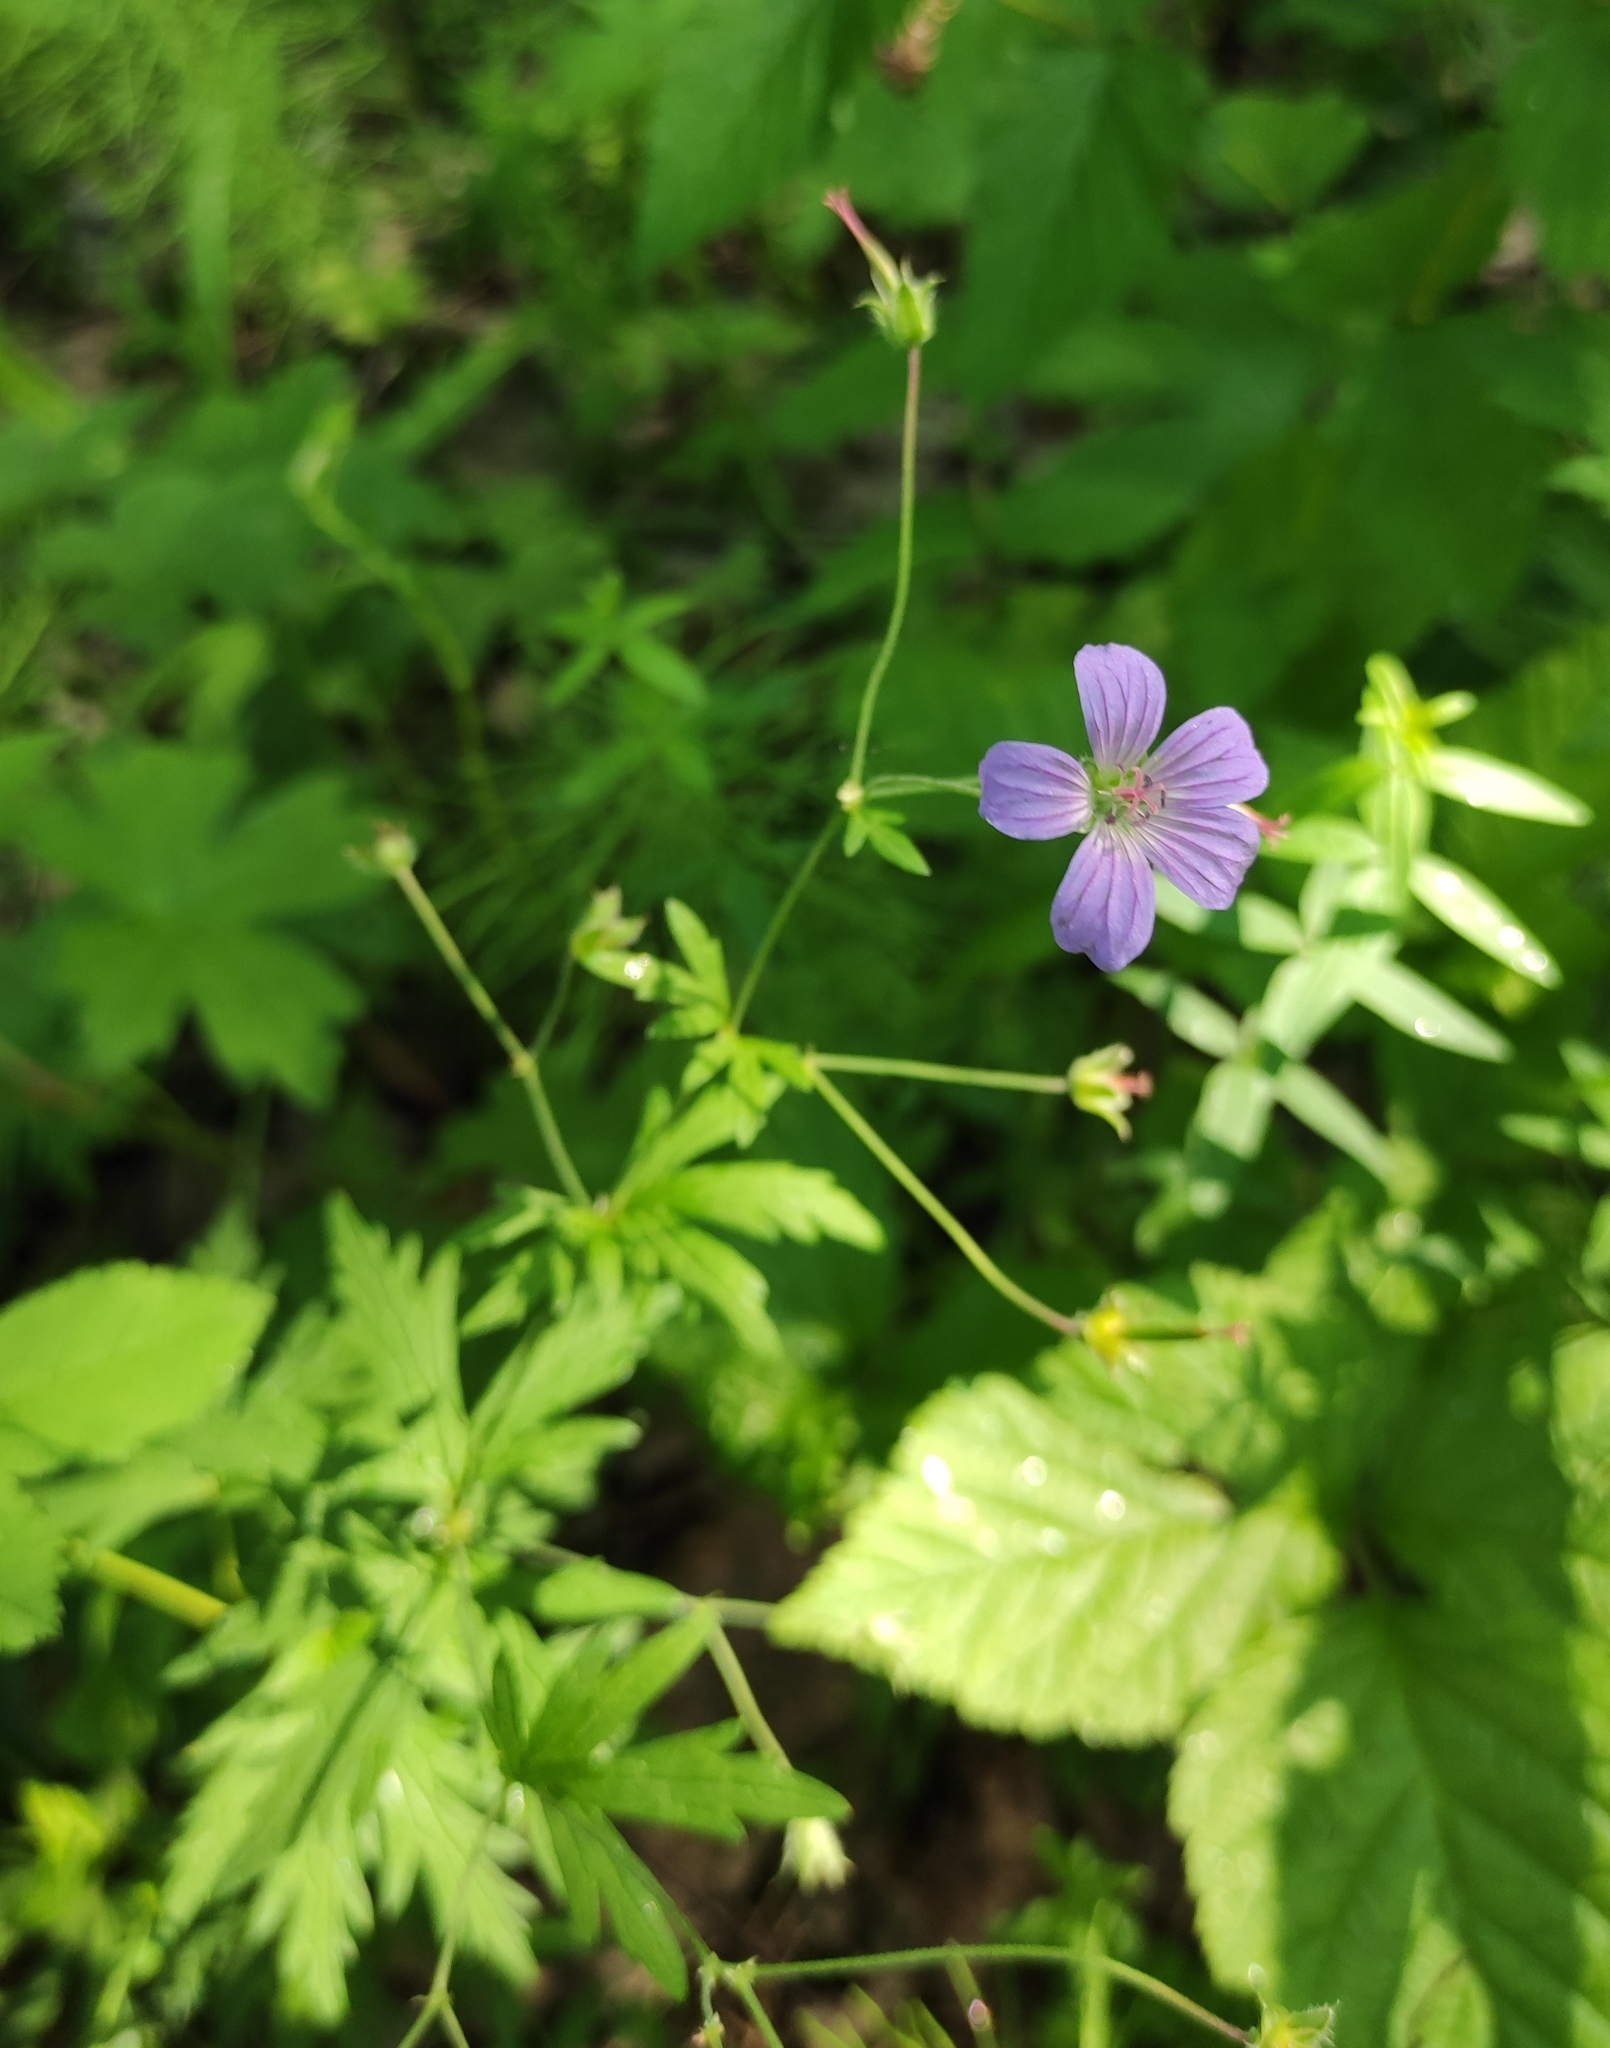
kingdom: Plantae
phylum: Tracheophyta
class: Magnoliopsida
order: Geraniales
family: Geraniaceae
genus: Geranium
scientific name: Geranium pseudosibiricum
